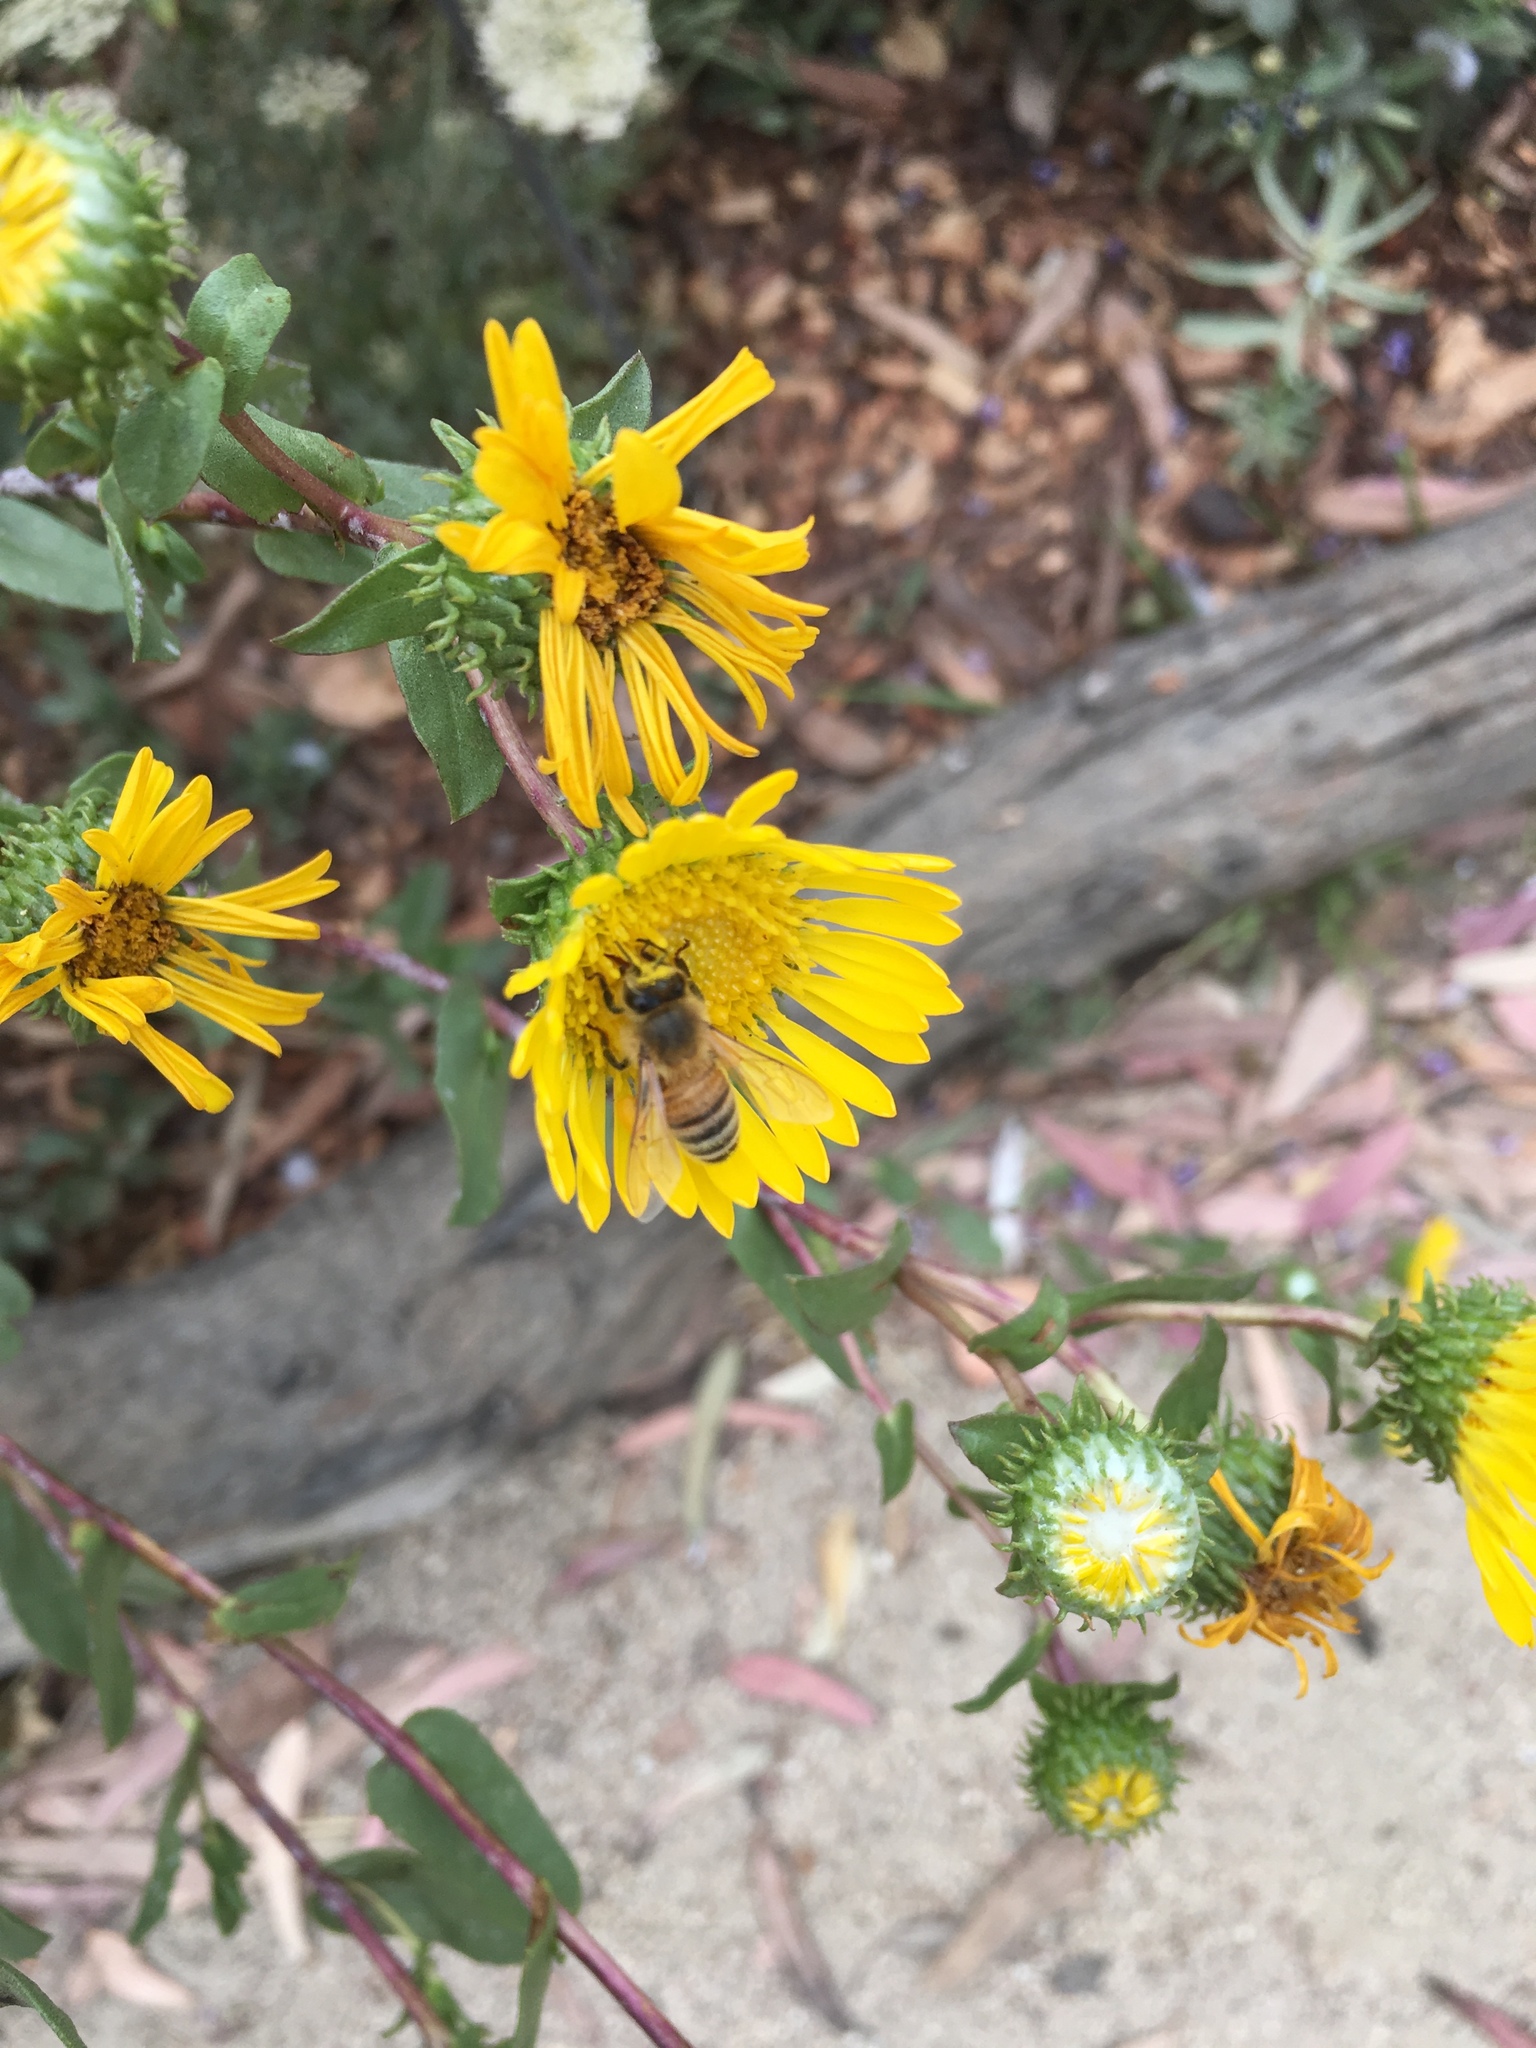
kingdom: Animalia
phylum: Arthropoda
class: Insecta
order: Hymenoptera
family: Apidae
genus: Apis
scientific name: Apis mellifera
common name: Honey bee
